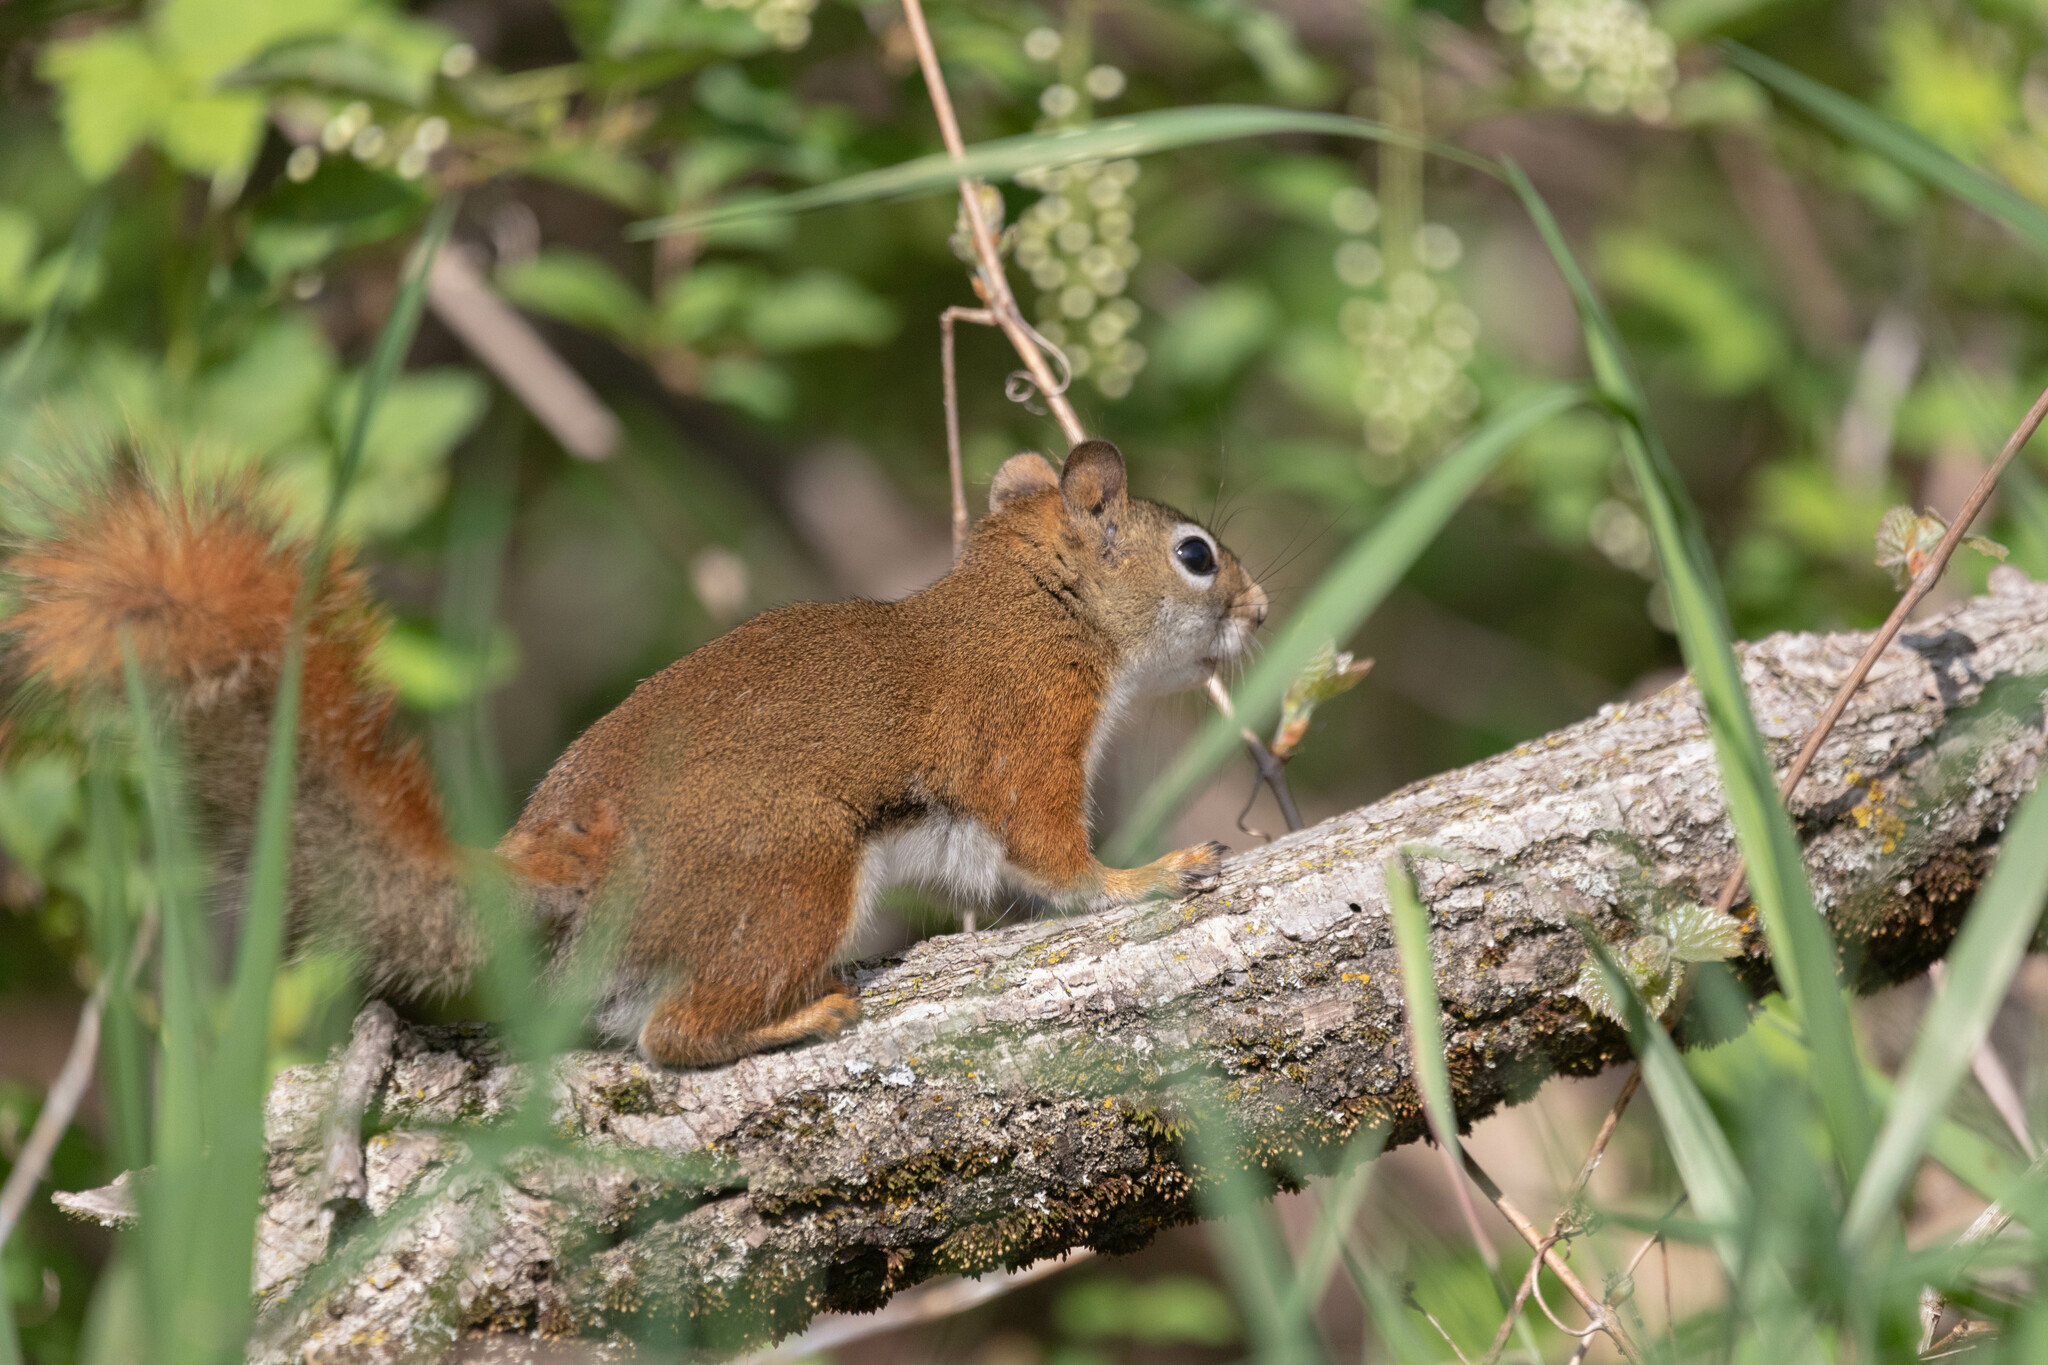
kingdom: Animalia
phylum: Chordata
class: Mammalia
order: Rodentia
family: Sciuridae
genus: Tamiasciurus
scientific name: Tamiasciurus hudsonicus
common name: Red squirrel
